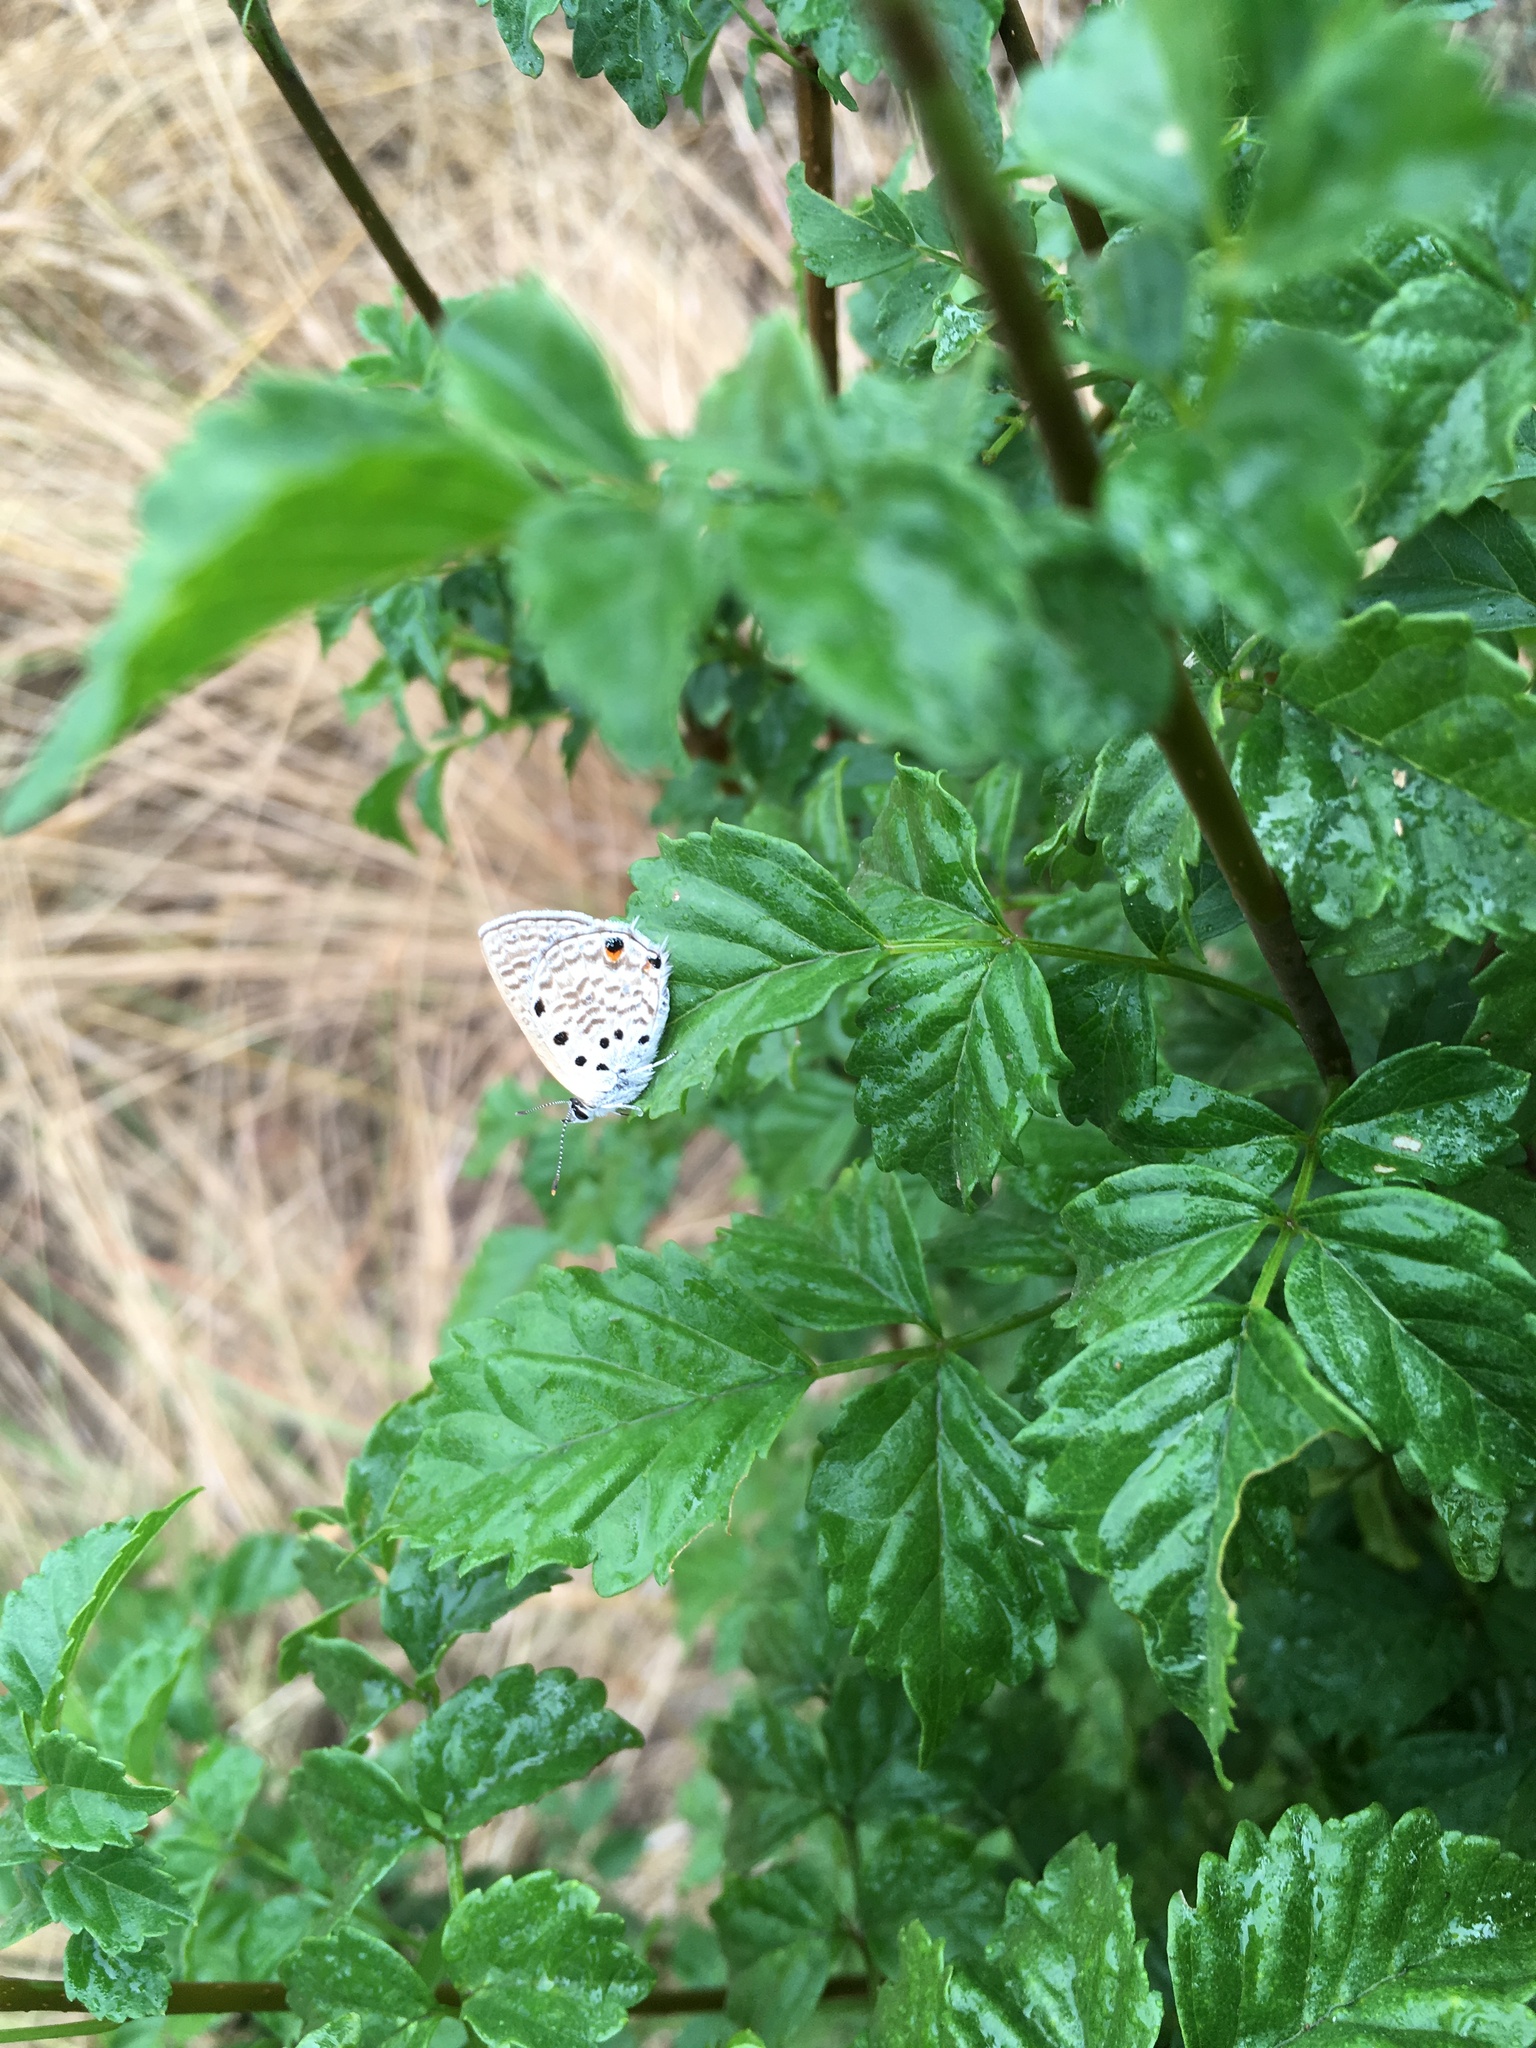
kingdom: Animalia
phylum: Arthropoda
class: Insecta
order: Lepidoptera
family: Lycaenidae
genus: Anthene
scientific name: Anthene amarah
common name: Black-striped hairtail
